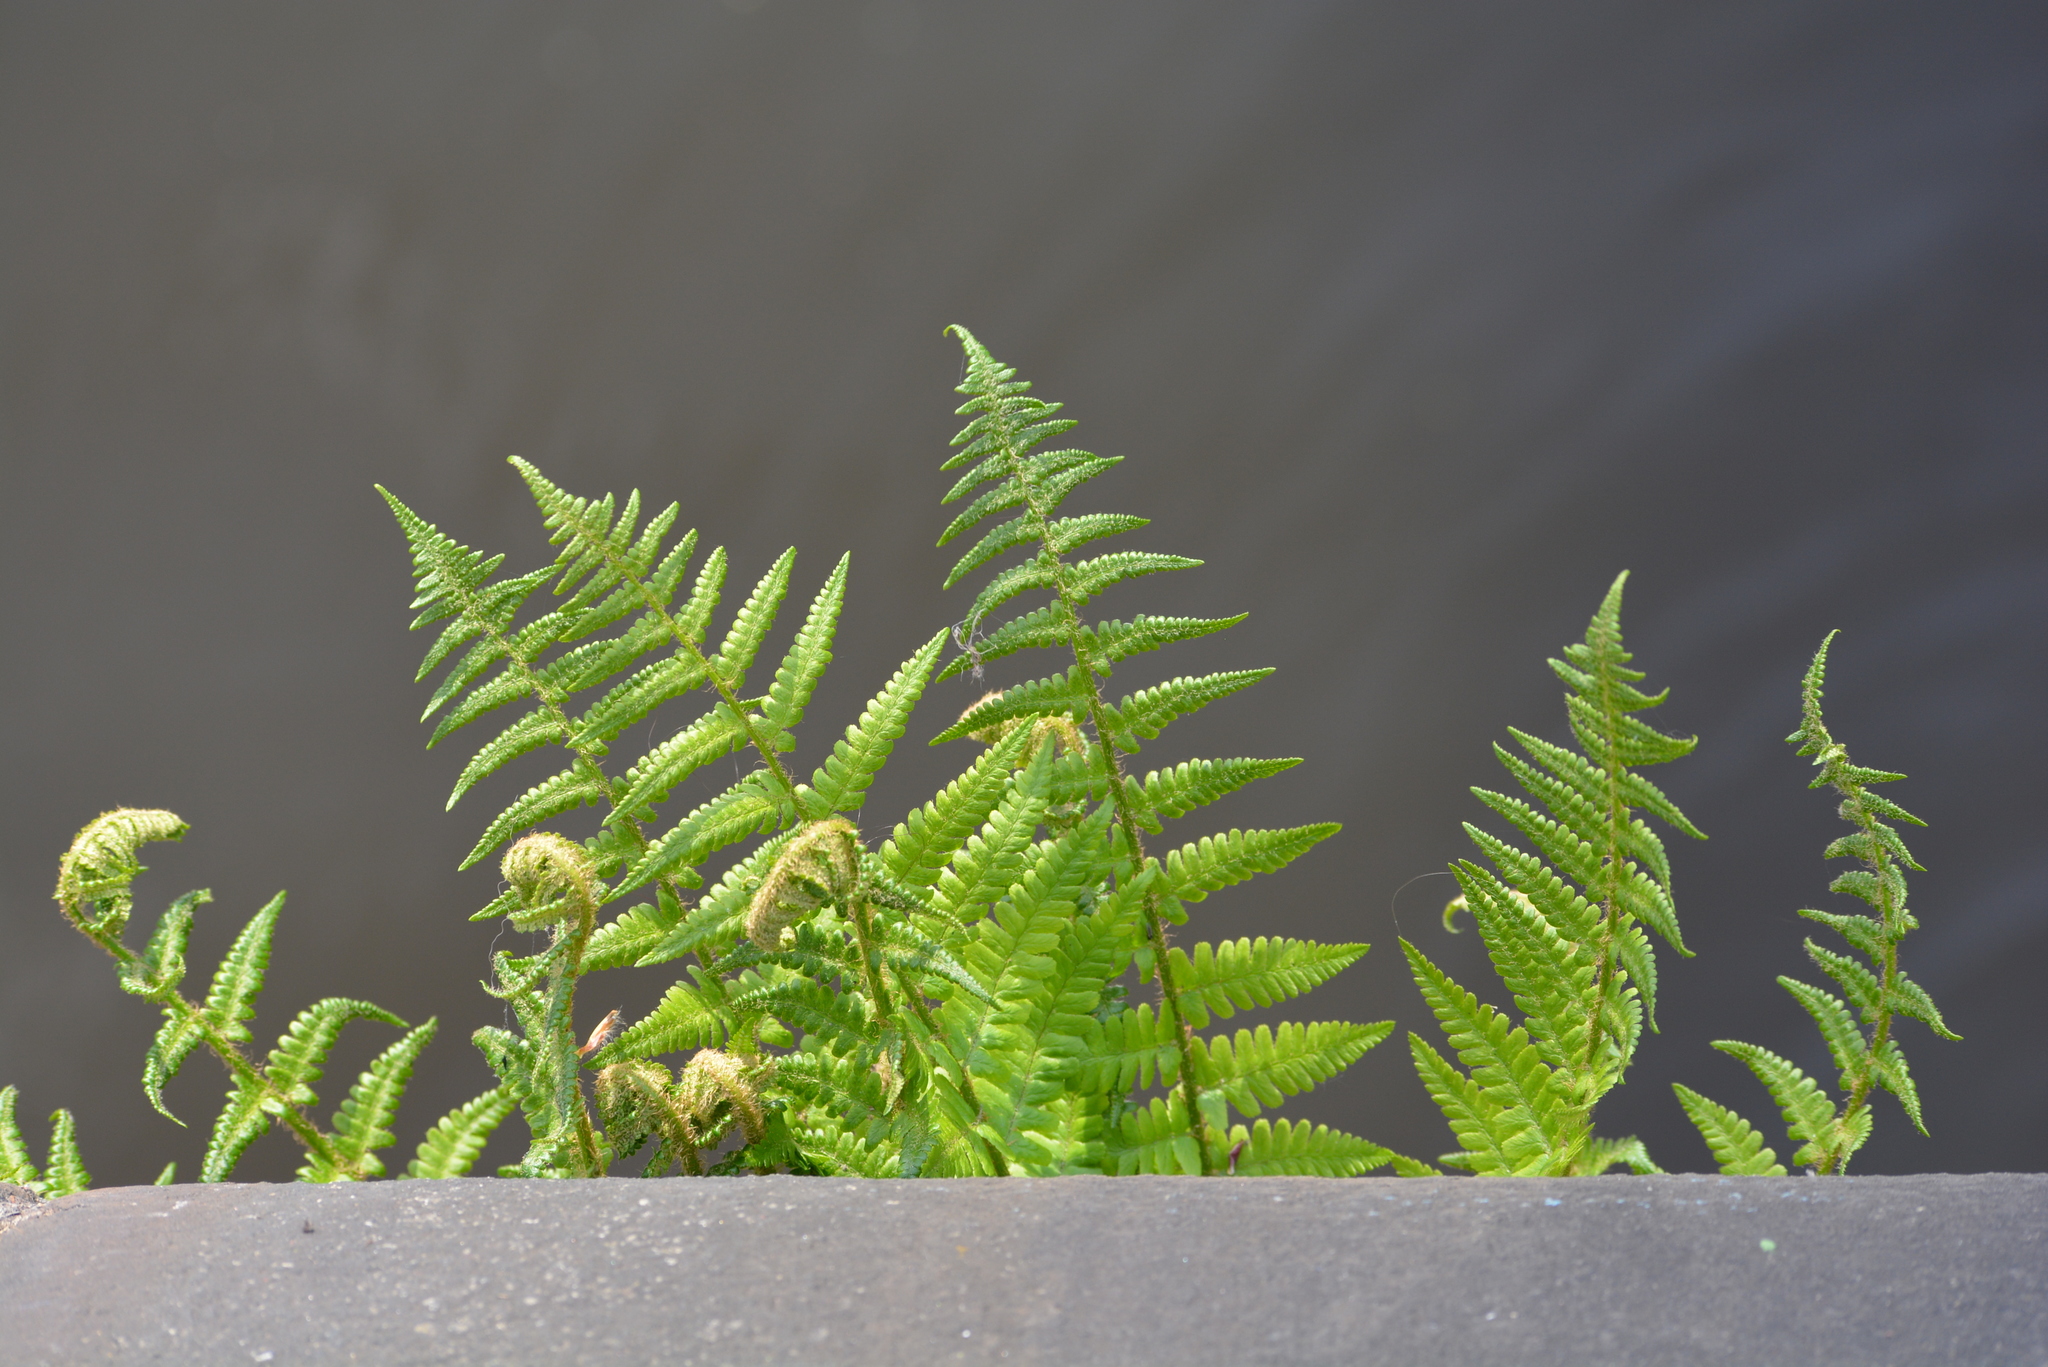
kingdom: Plantae
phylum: Tracheophyta
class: Polypodiopsida
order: Polypodiales
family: Dryopteridaceae
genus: Dryopteris
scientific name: Dryopteris filix-mas
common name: Male fern
